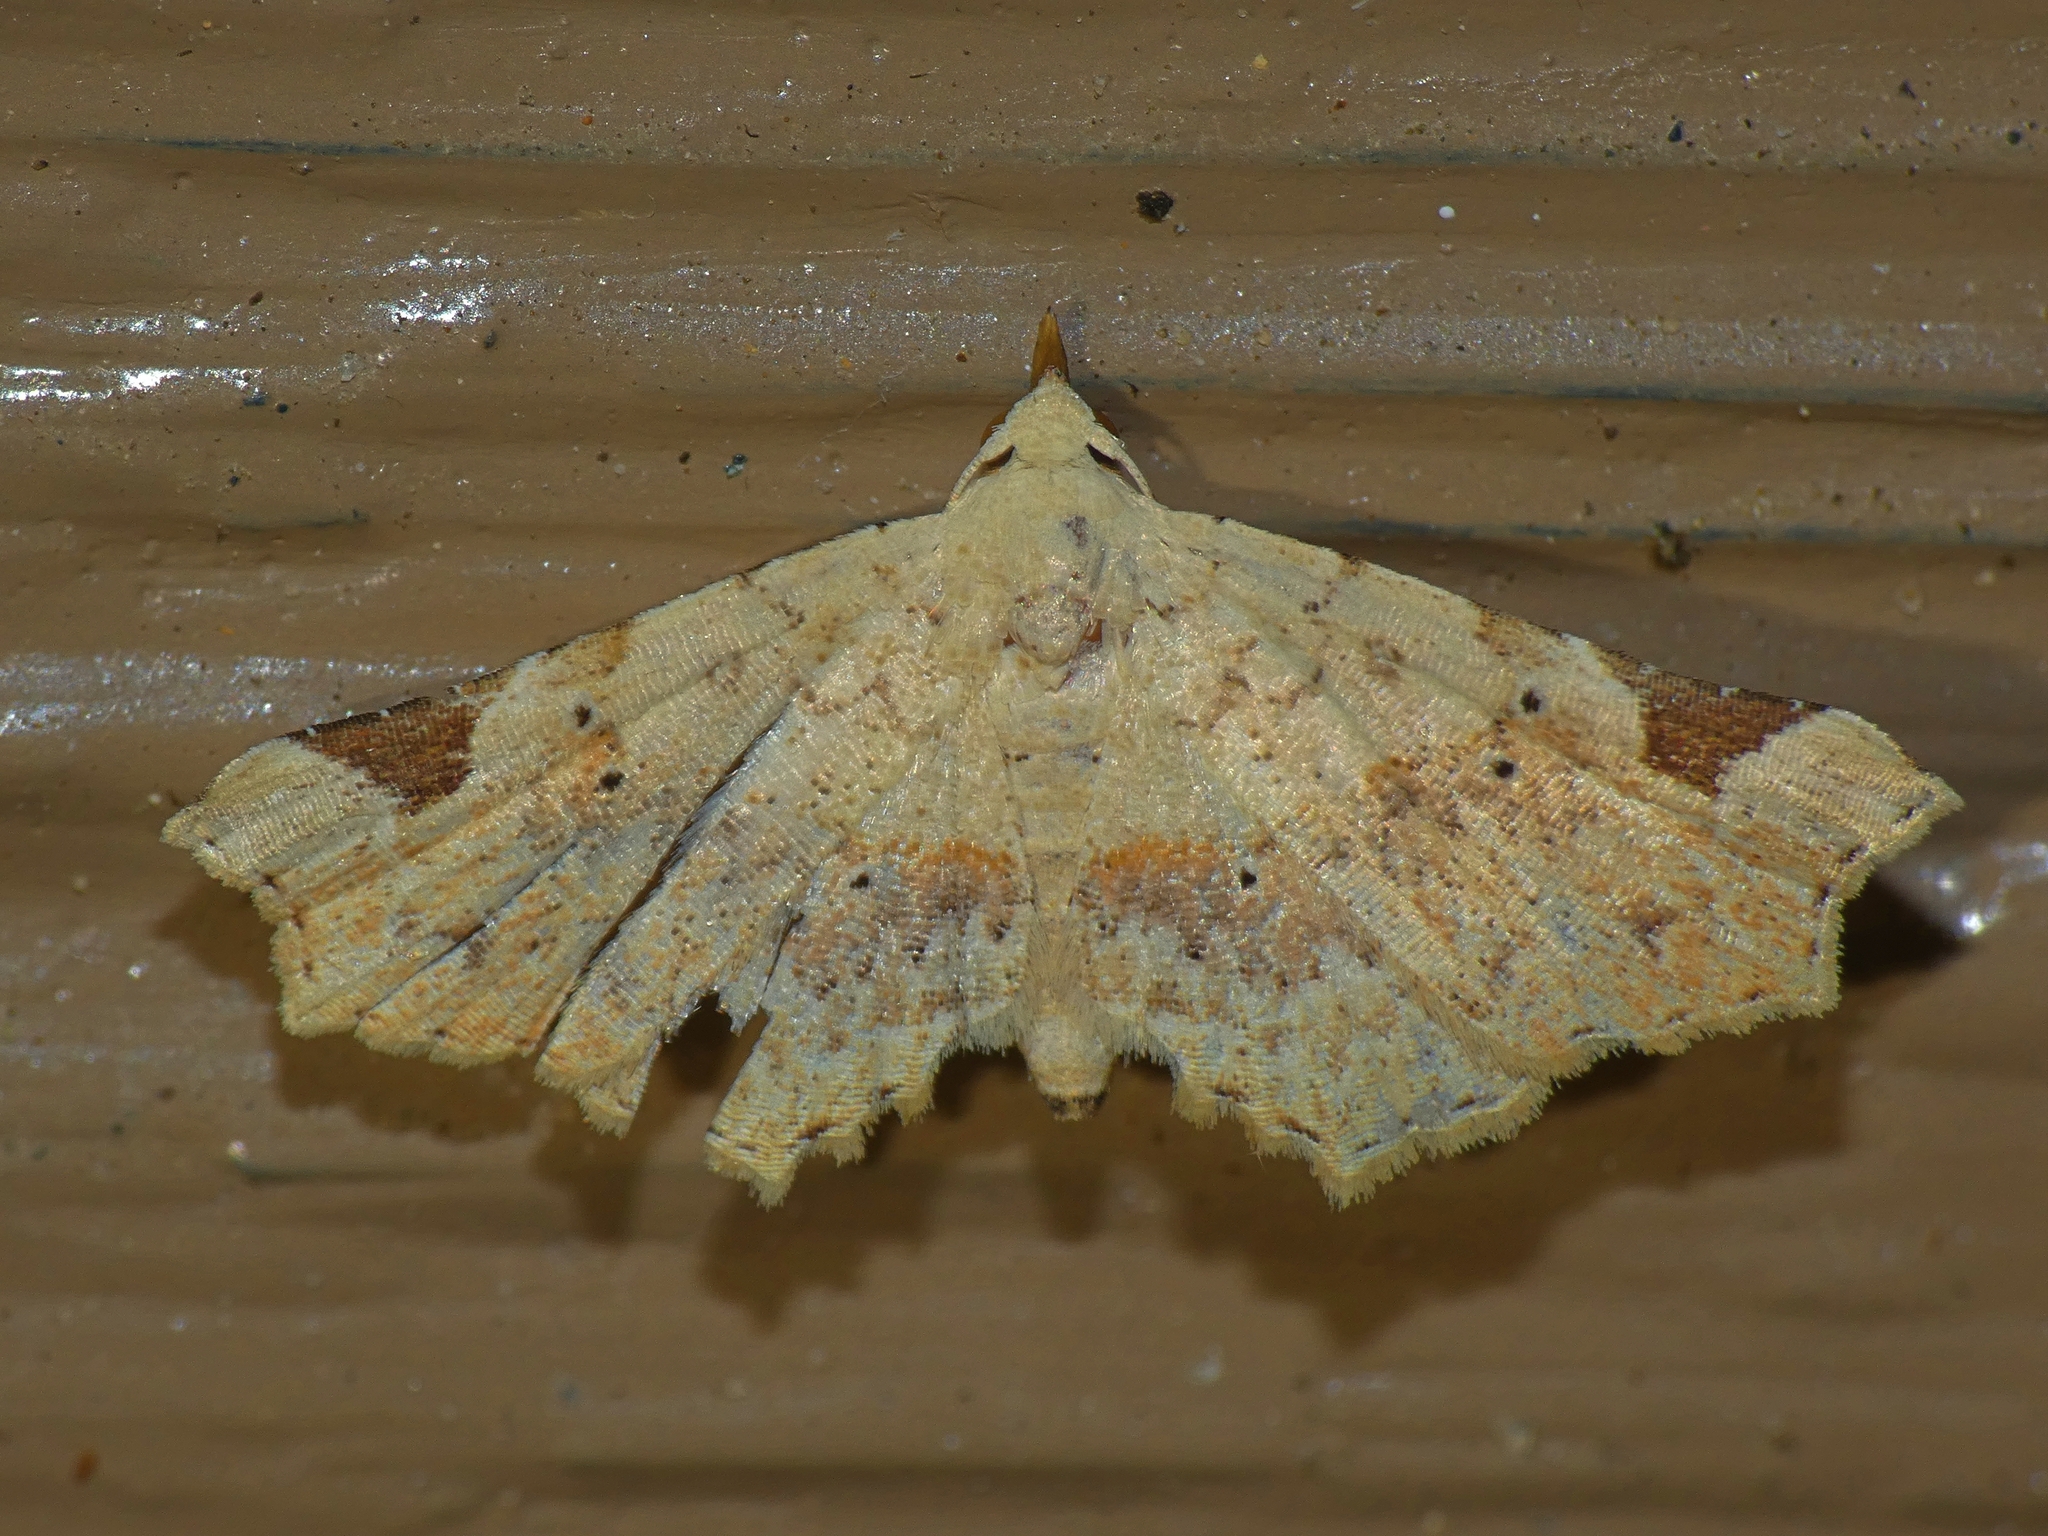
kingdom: Animalia
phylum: Arthropoda
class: Insecta
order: Lepidoptera
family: Erebidae
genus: Prolophota
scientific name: Prolophota pallida
